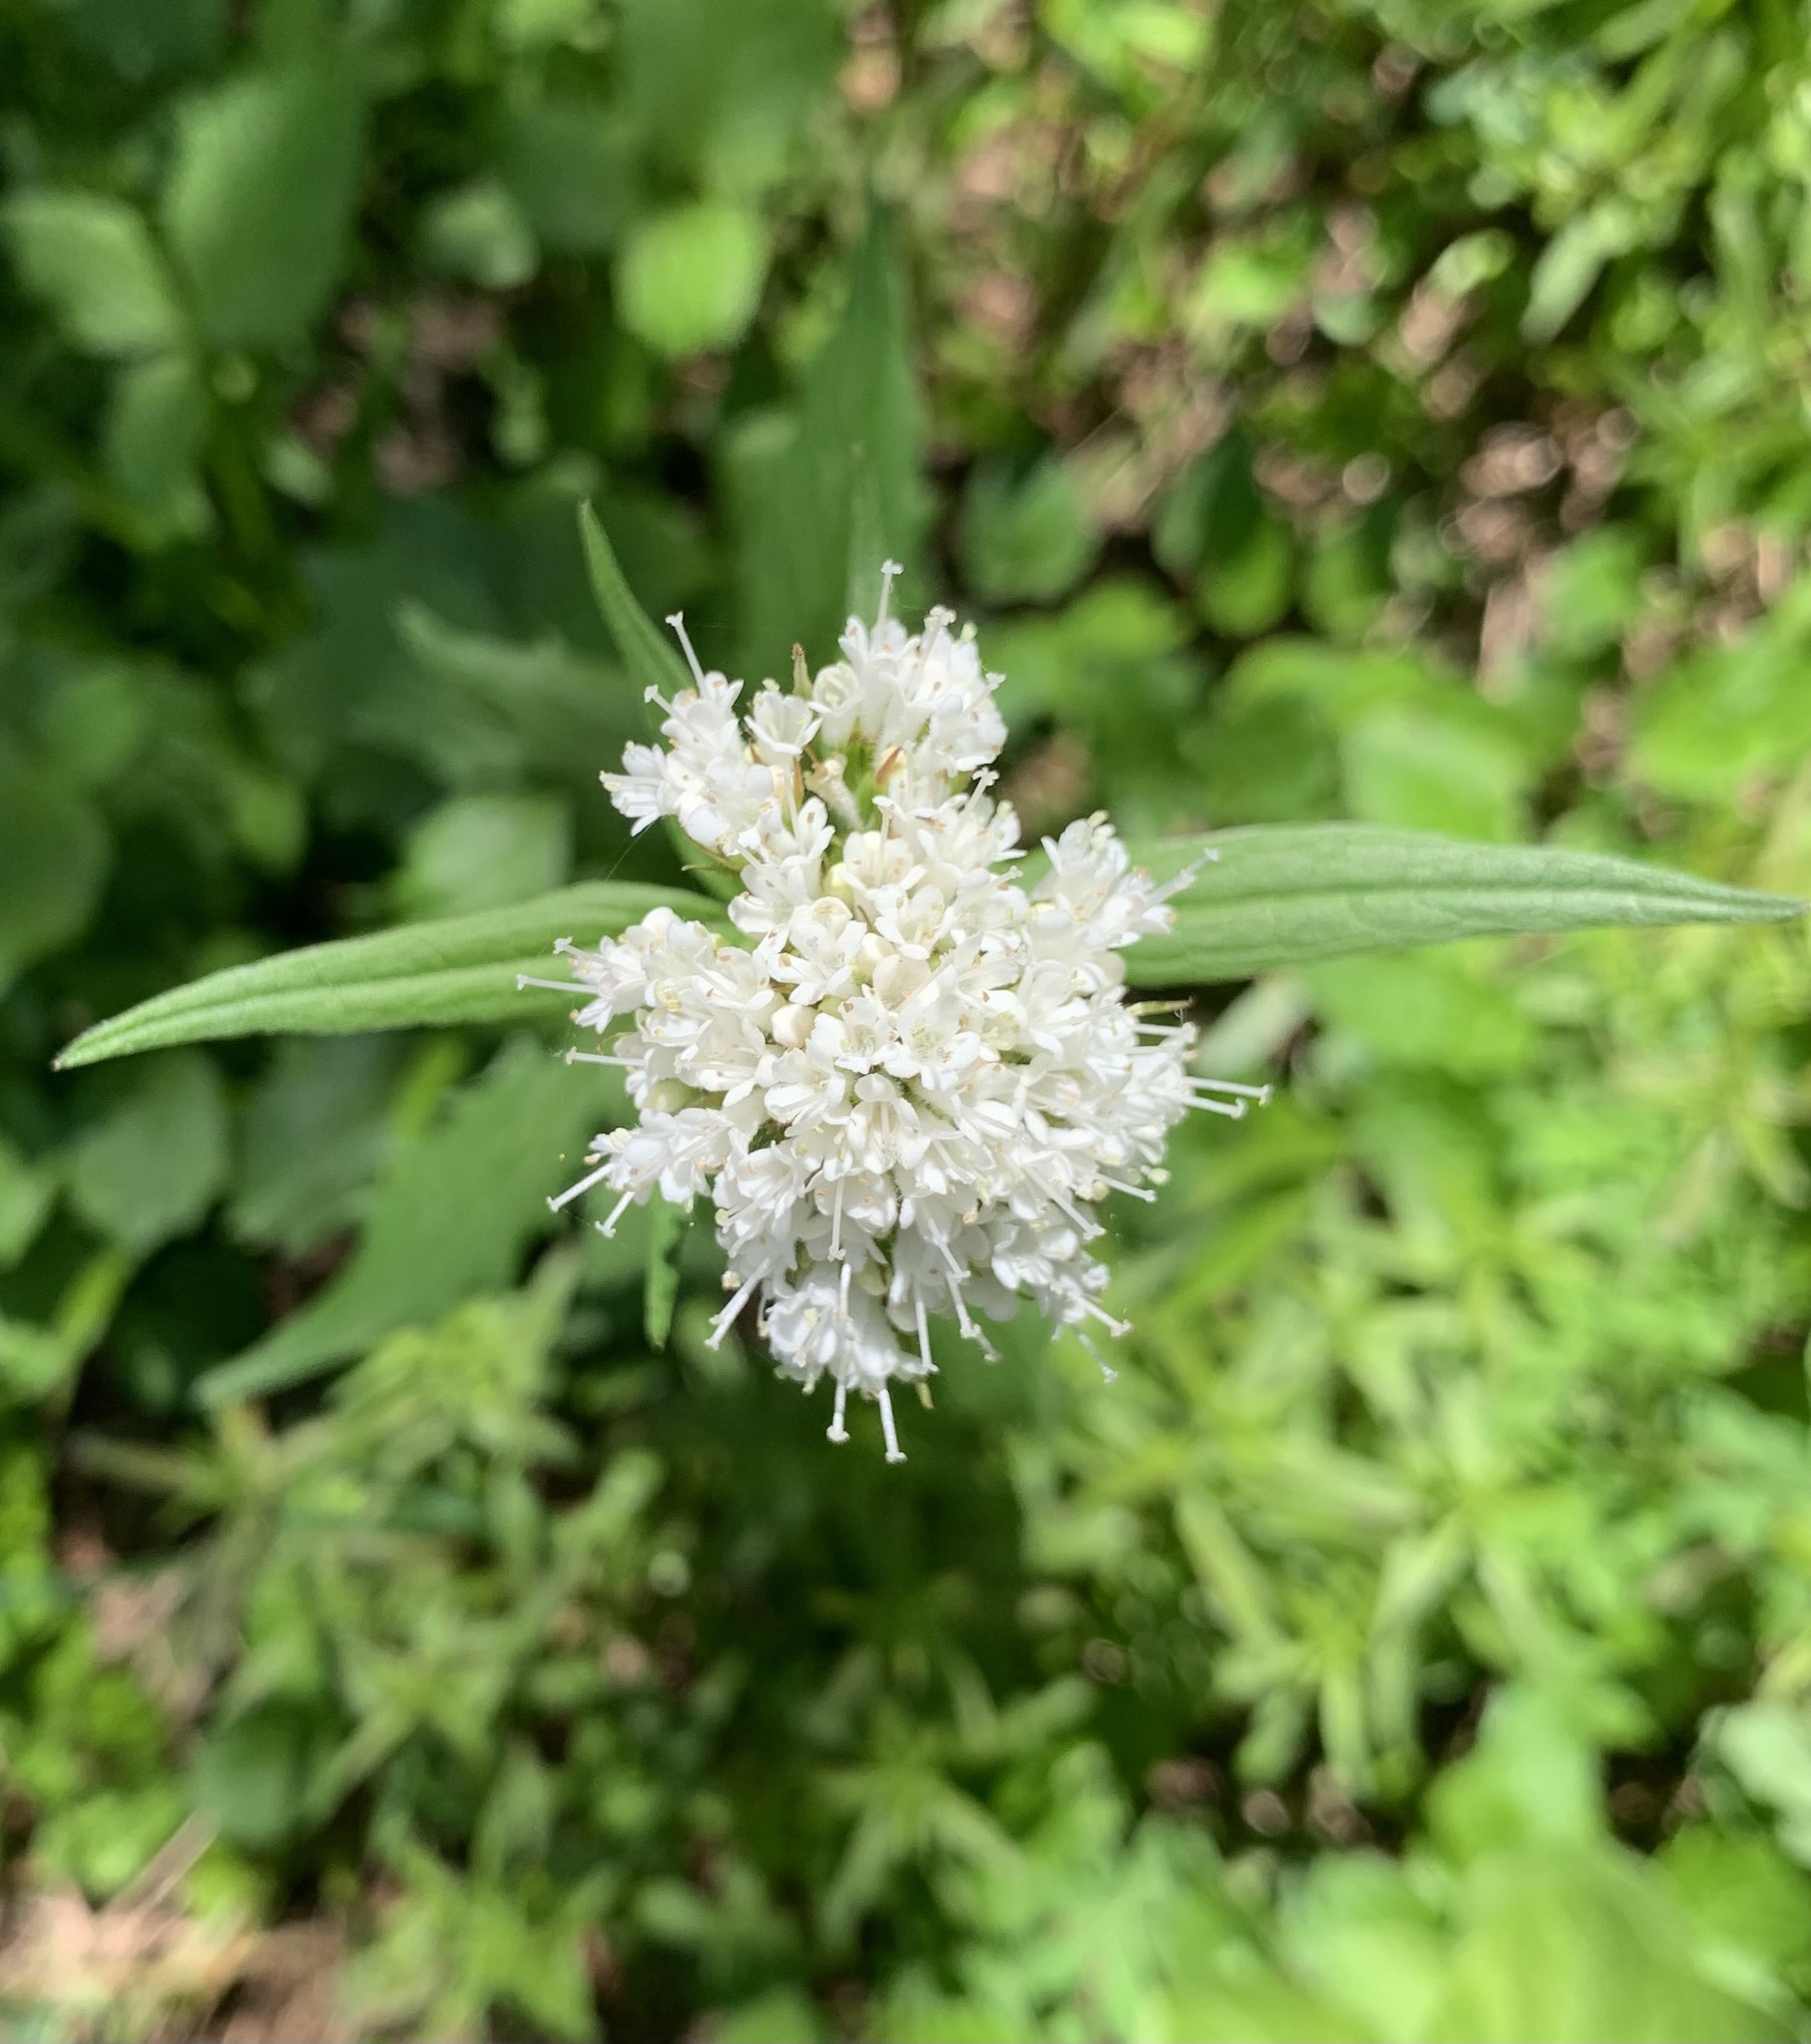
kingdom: Plantae
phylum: Tracheophyta
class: Magnoliopsida
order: Dipsacales
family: Caprifoliaceae
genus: Valeriana
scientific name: Valeriana sitchensis
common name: Pacific valerian
